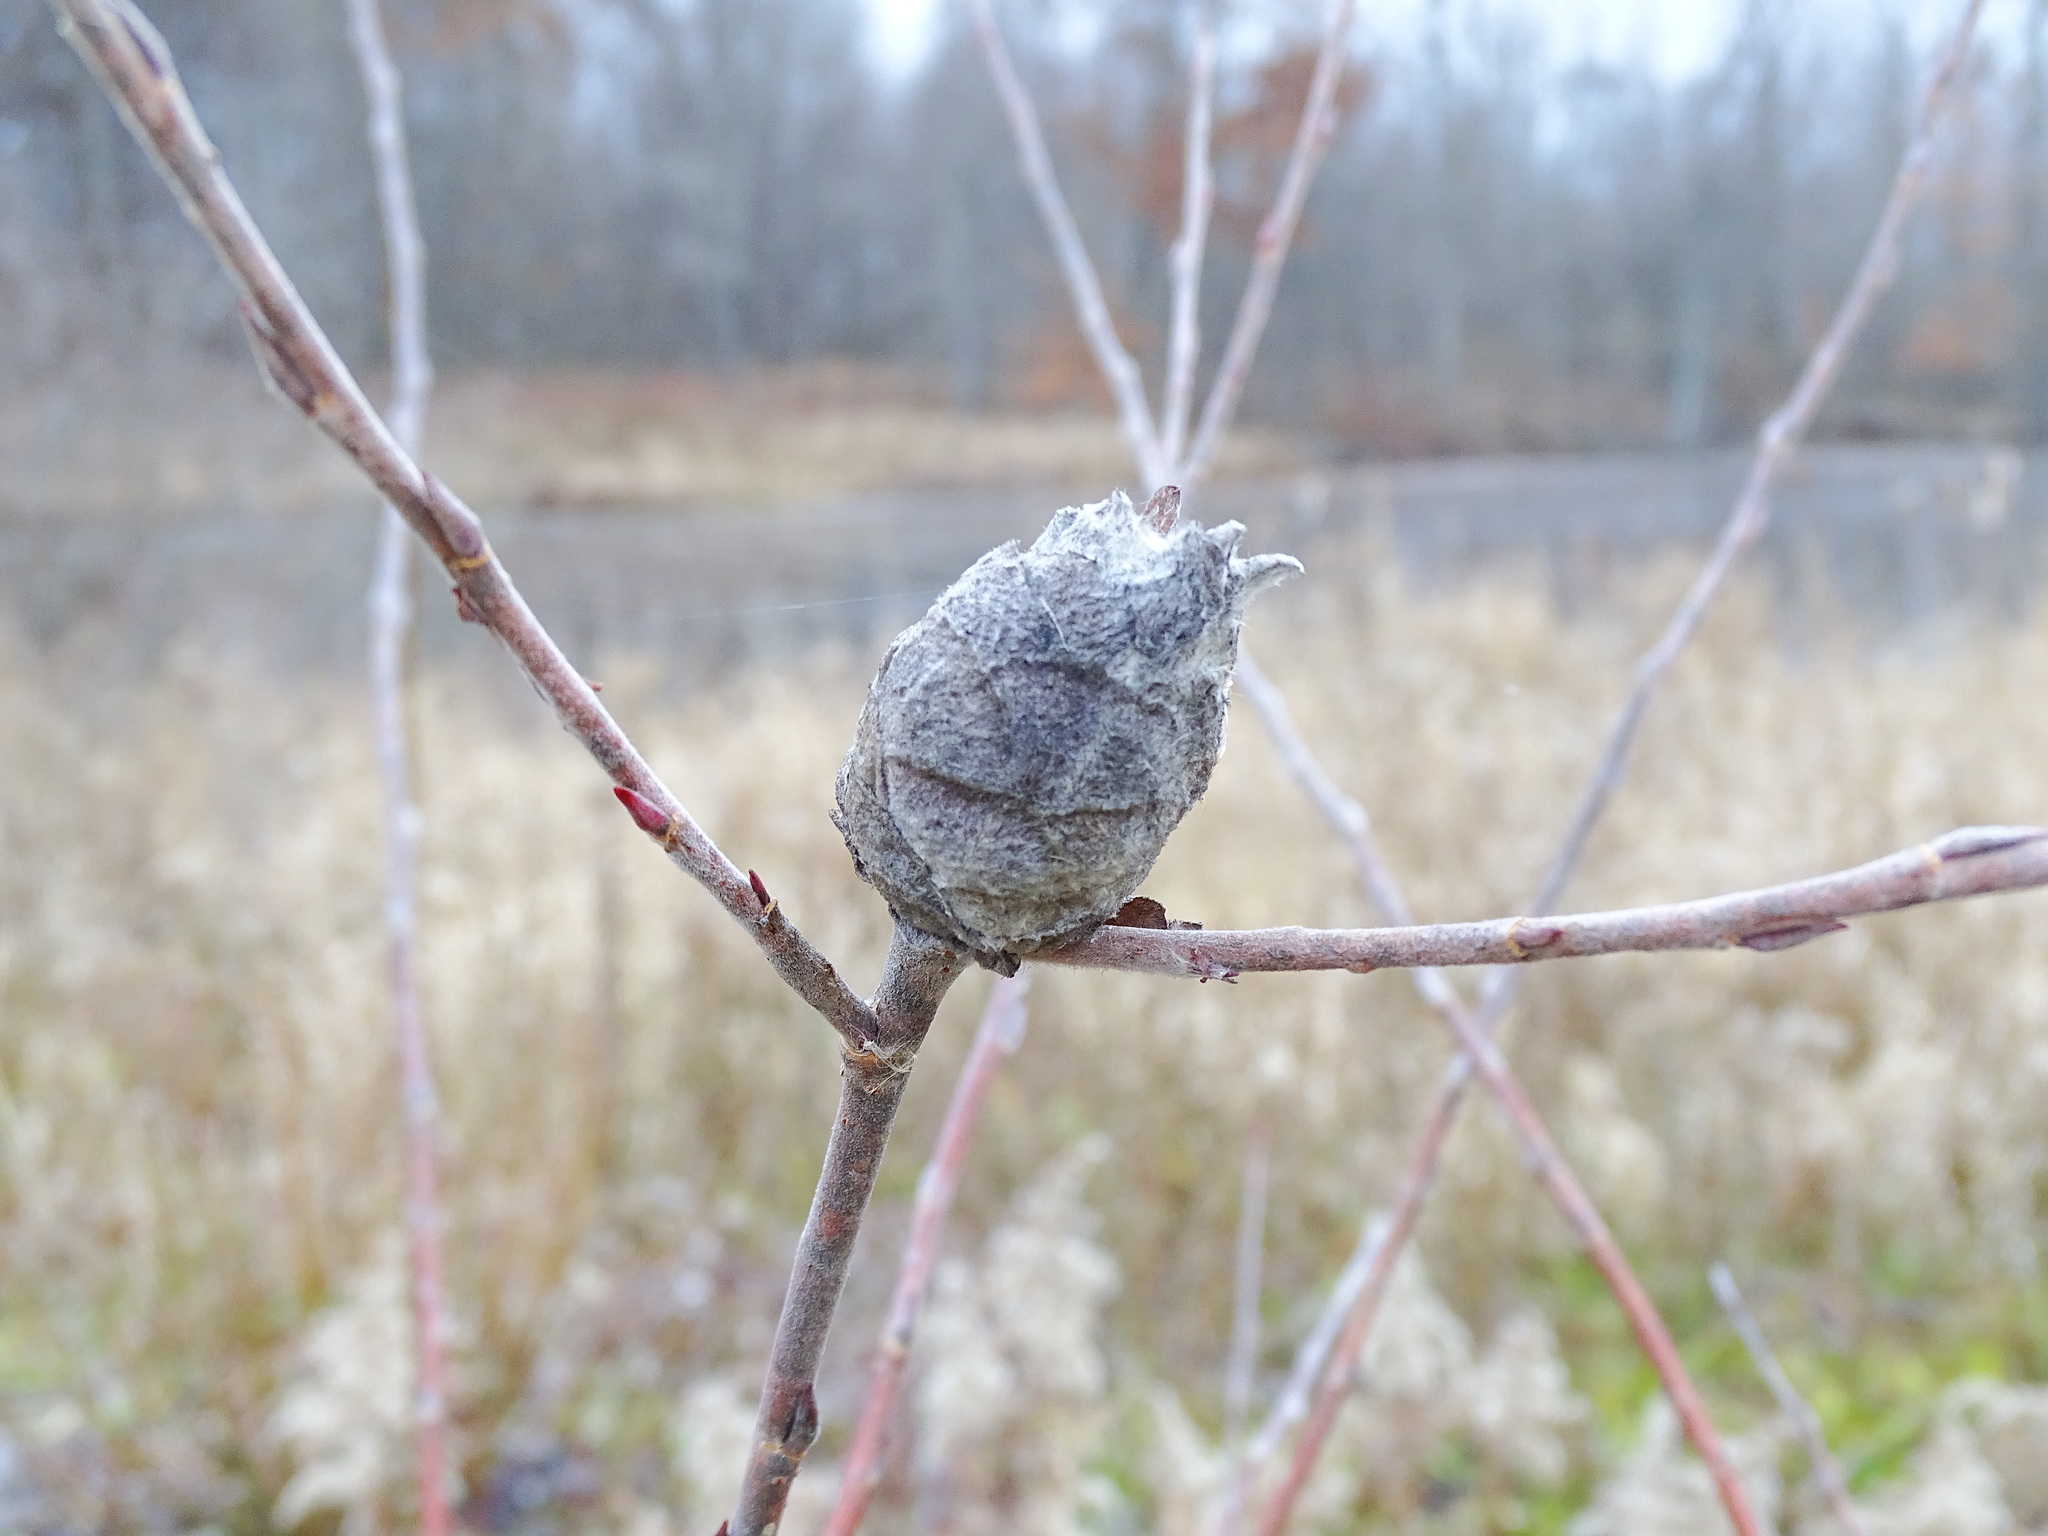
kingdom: Animalia
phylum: Arthropoda
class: Insecta
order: Diptera
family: Cecidomyiidae
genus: Rabdophaga
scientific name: Rabdophaga strobiloides
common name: Willow pinecone gall midge
